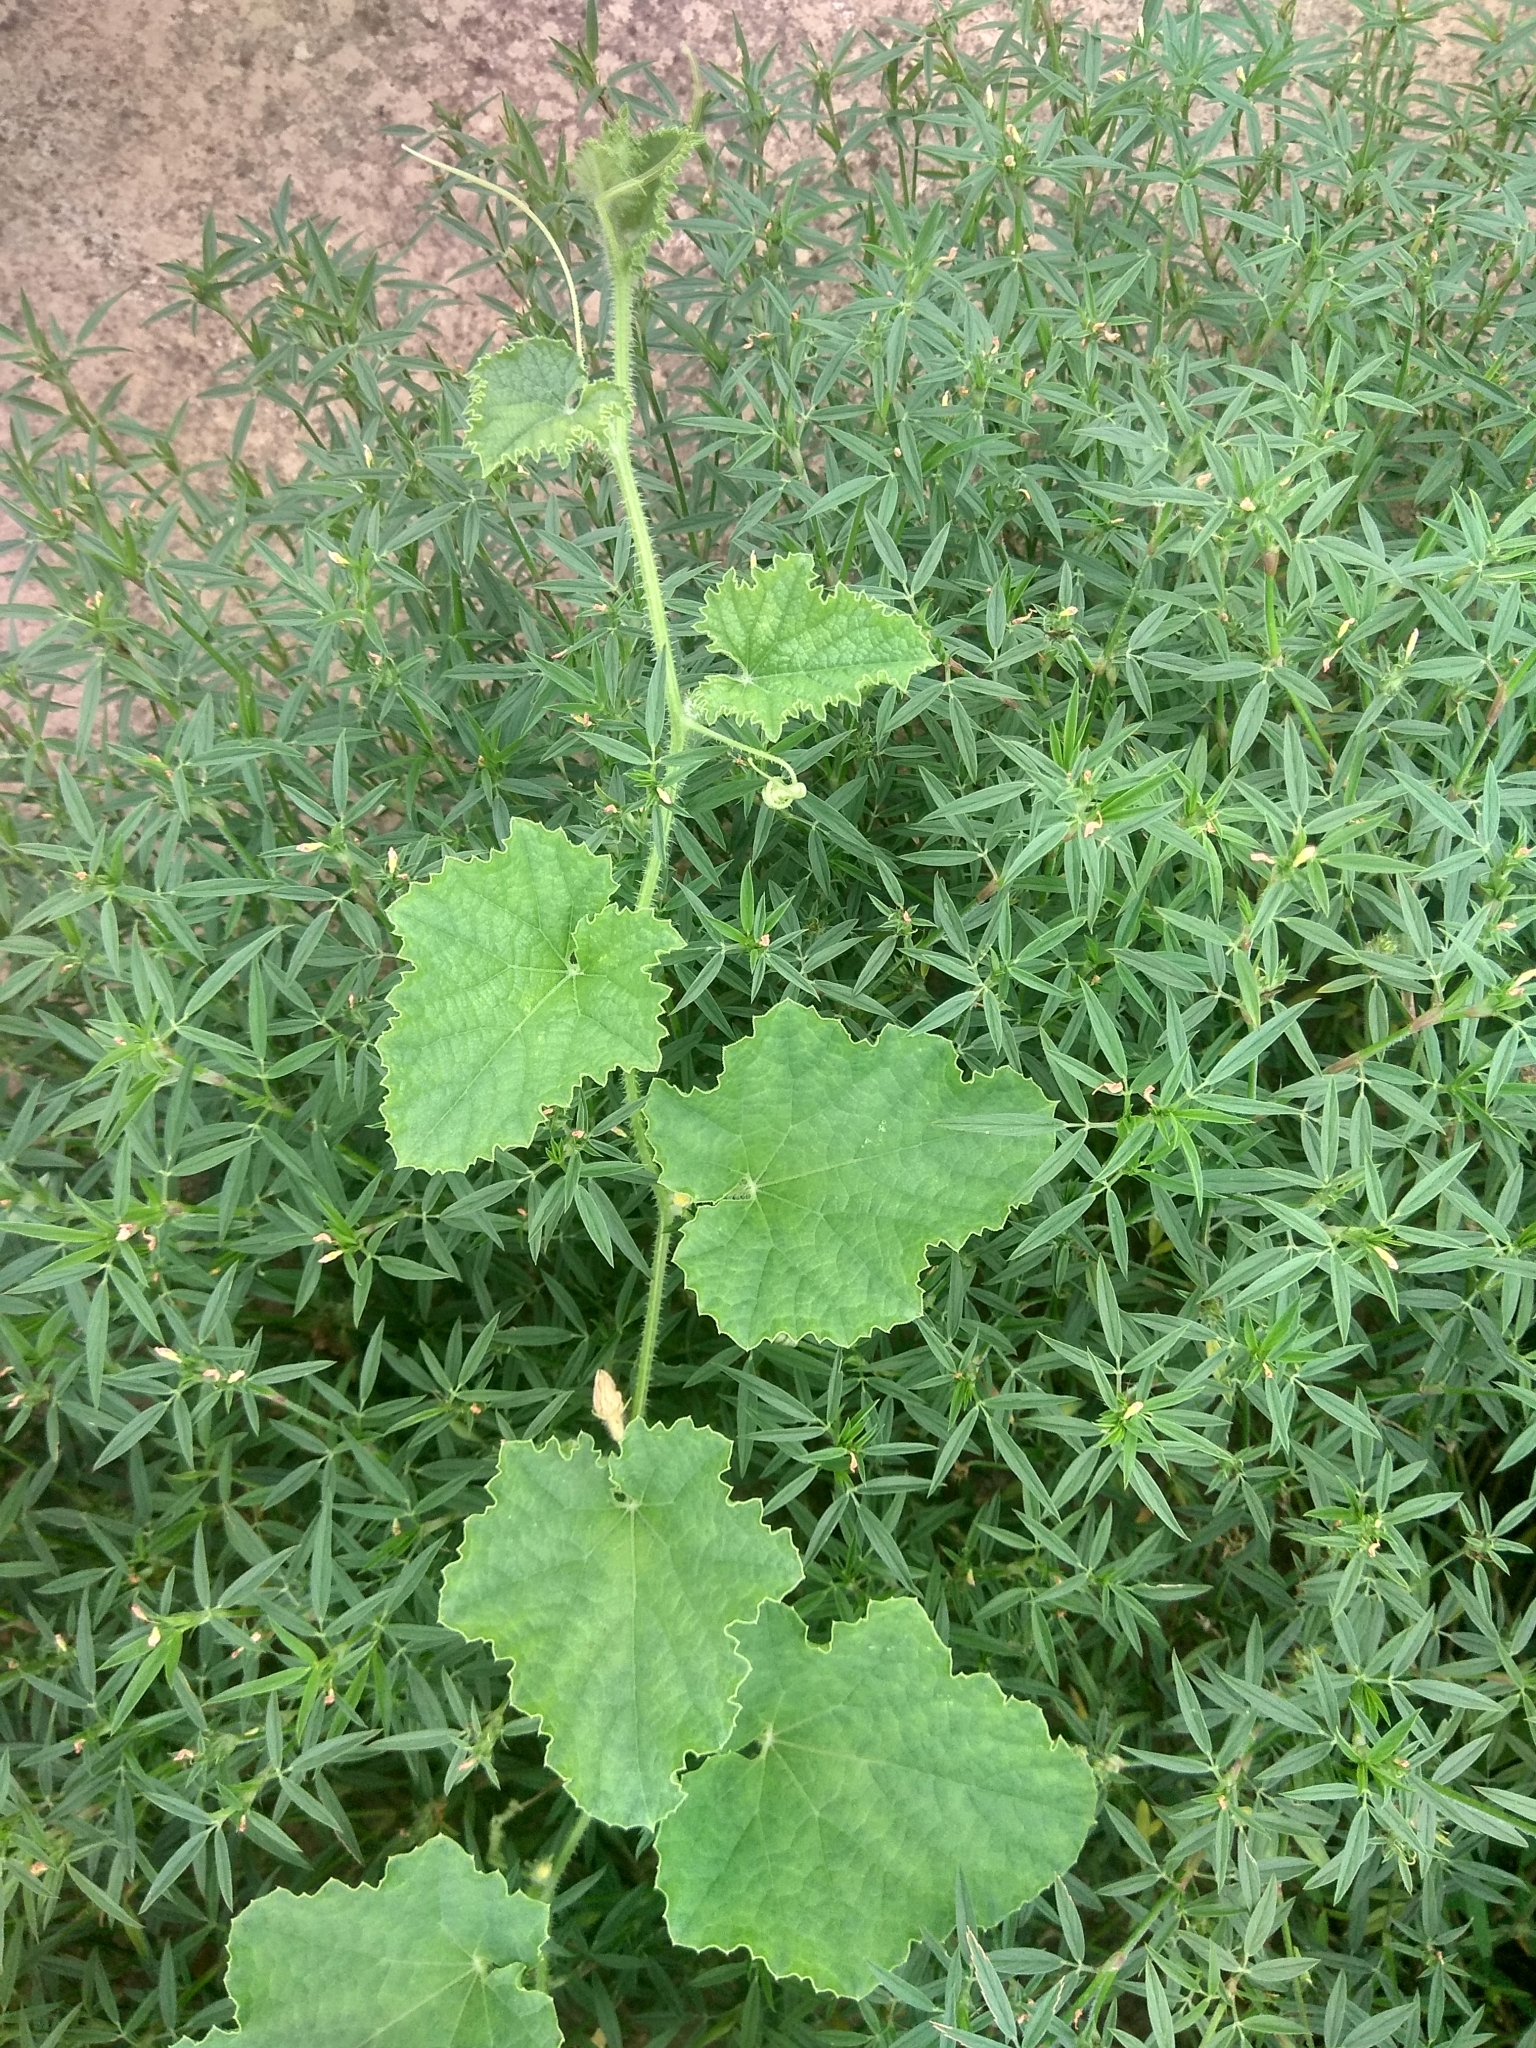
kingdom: Plantae
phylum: Tracheophyta
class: Magnoliopsida
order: Cucurbitales
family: Cucurbitaceae
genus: Cucumis
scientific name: Cucumis sativus
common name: Cucumber
